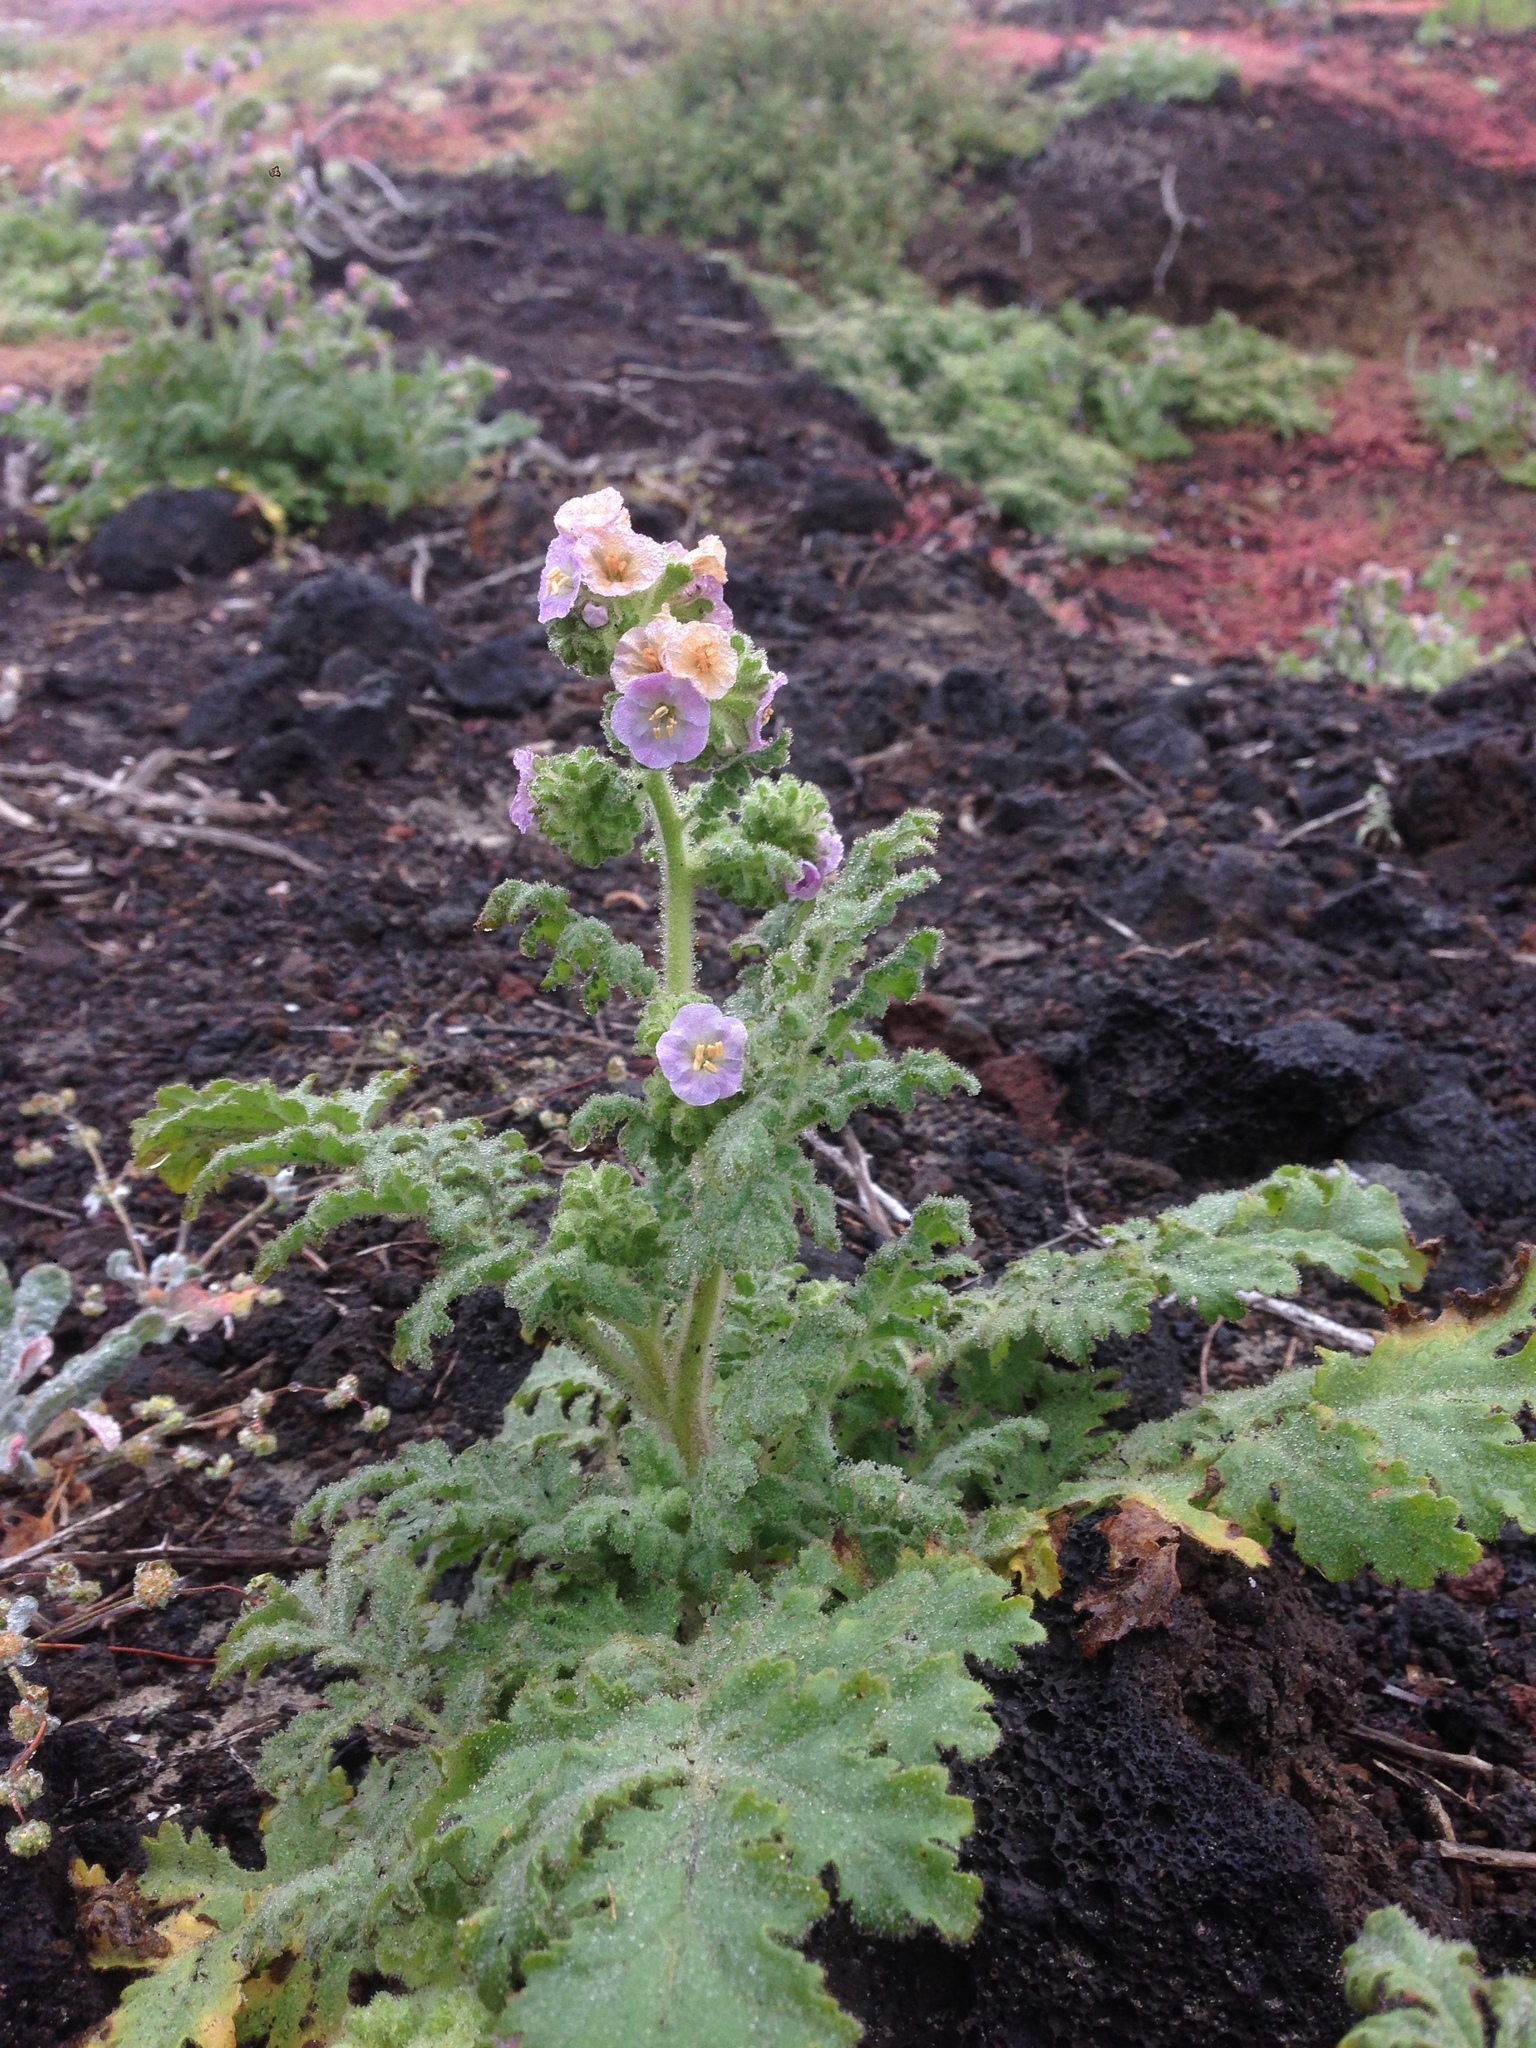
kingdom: Plantae
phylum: Tracheophyta
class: Magnoliopsida
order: Boraginales
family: Hydrophyllaceae
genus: Phacelia
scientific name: Phacelia ixodes
